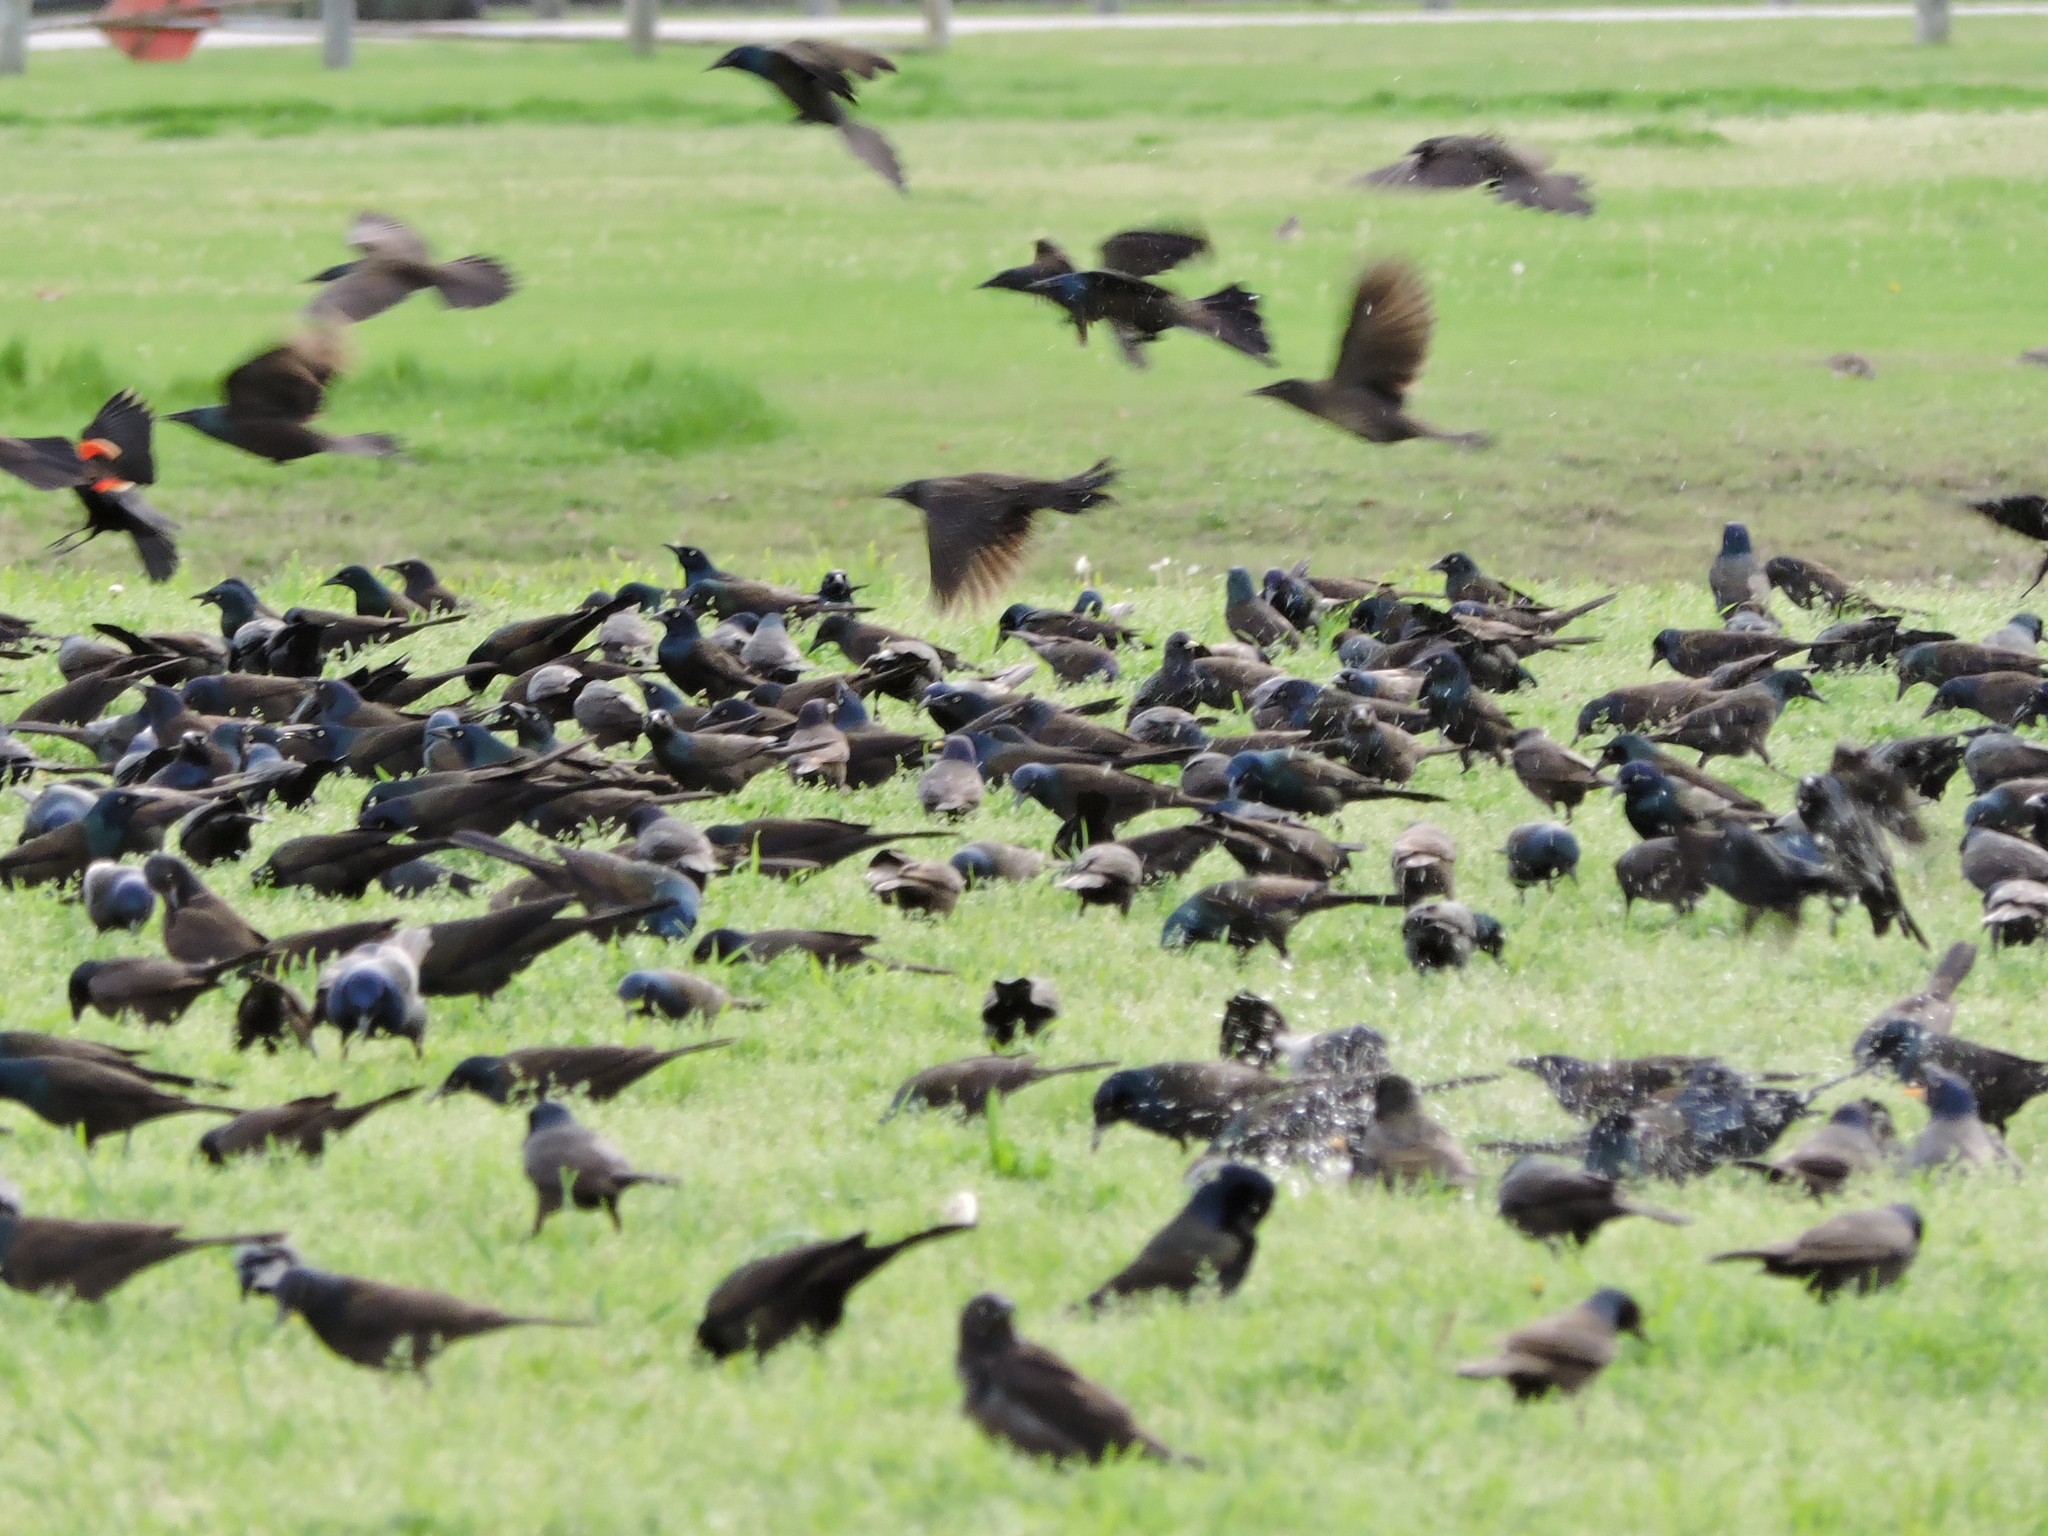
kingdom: Animalia
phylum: Chordata
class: Aves
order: Passeriformes
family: Icteridae
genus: Quiscalus
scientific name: Quiscalus quiscula
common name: Common grackle
